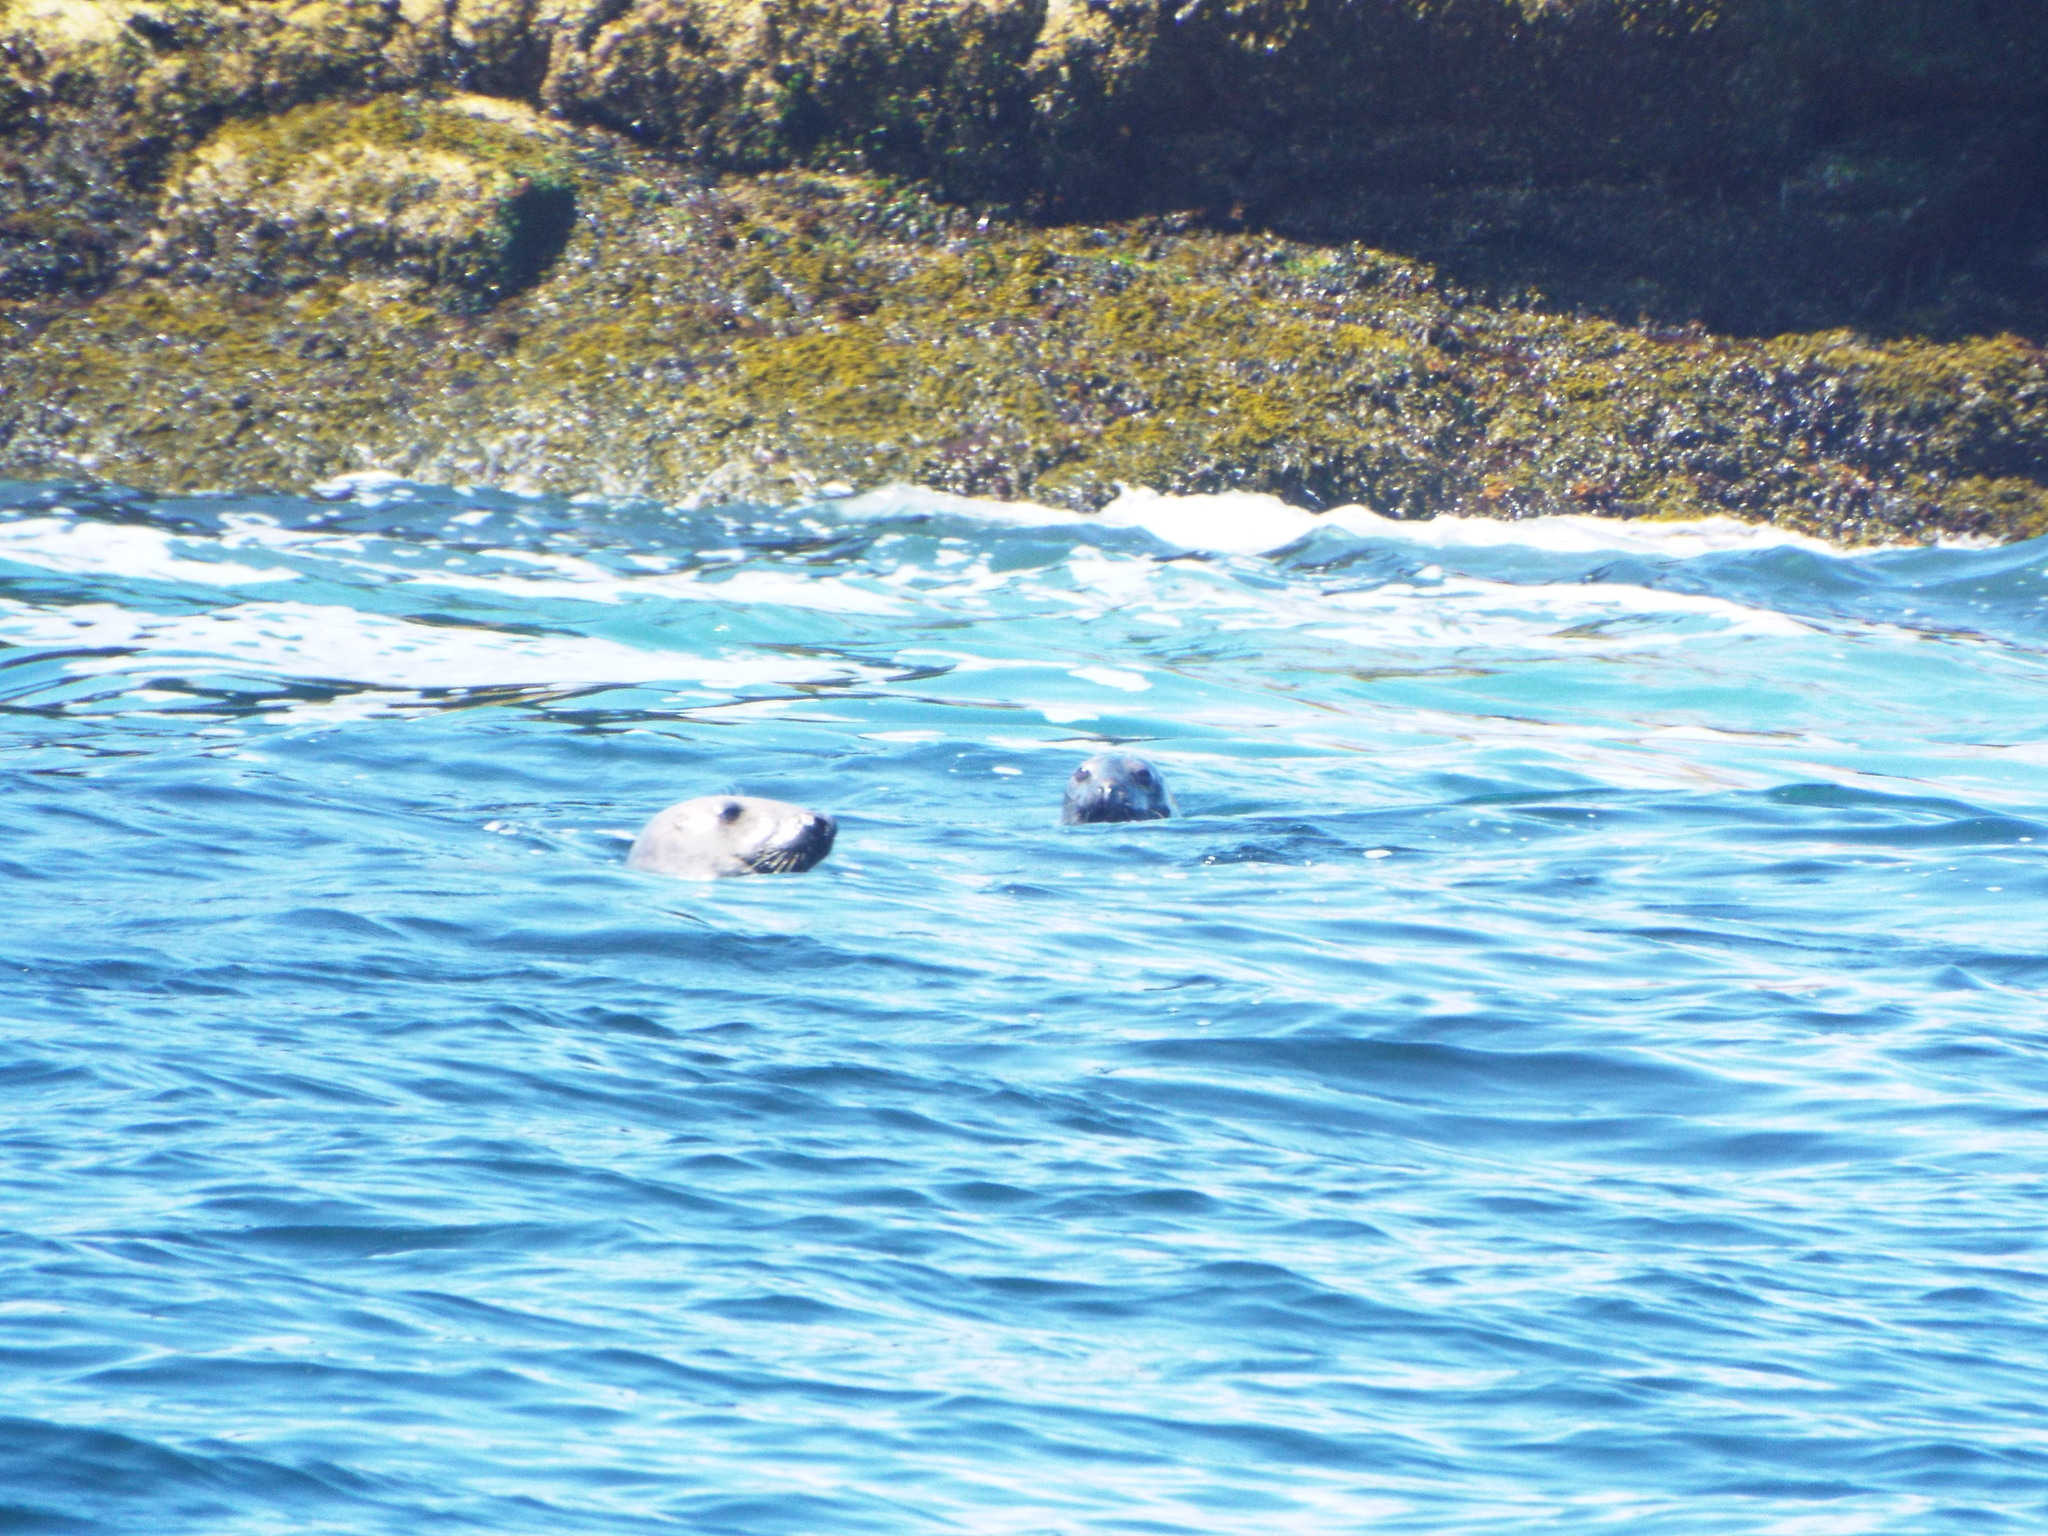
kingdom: Animalia
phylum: Chordata
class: Mammalia
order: Carnivora
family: Phocidae
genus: Halichoerus
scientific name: Halichoerus grypus
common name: Grey seal
